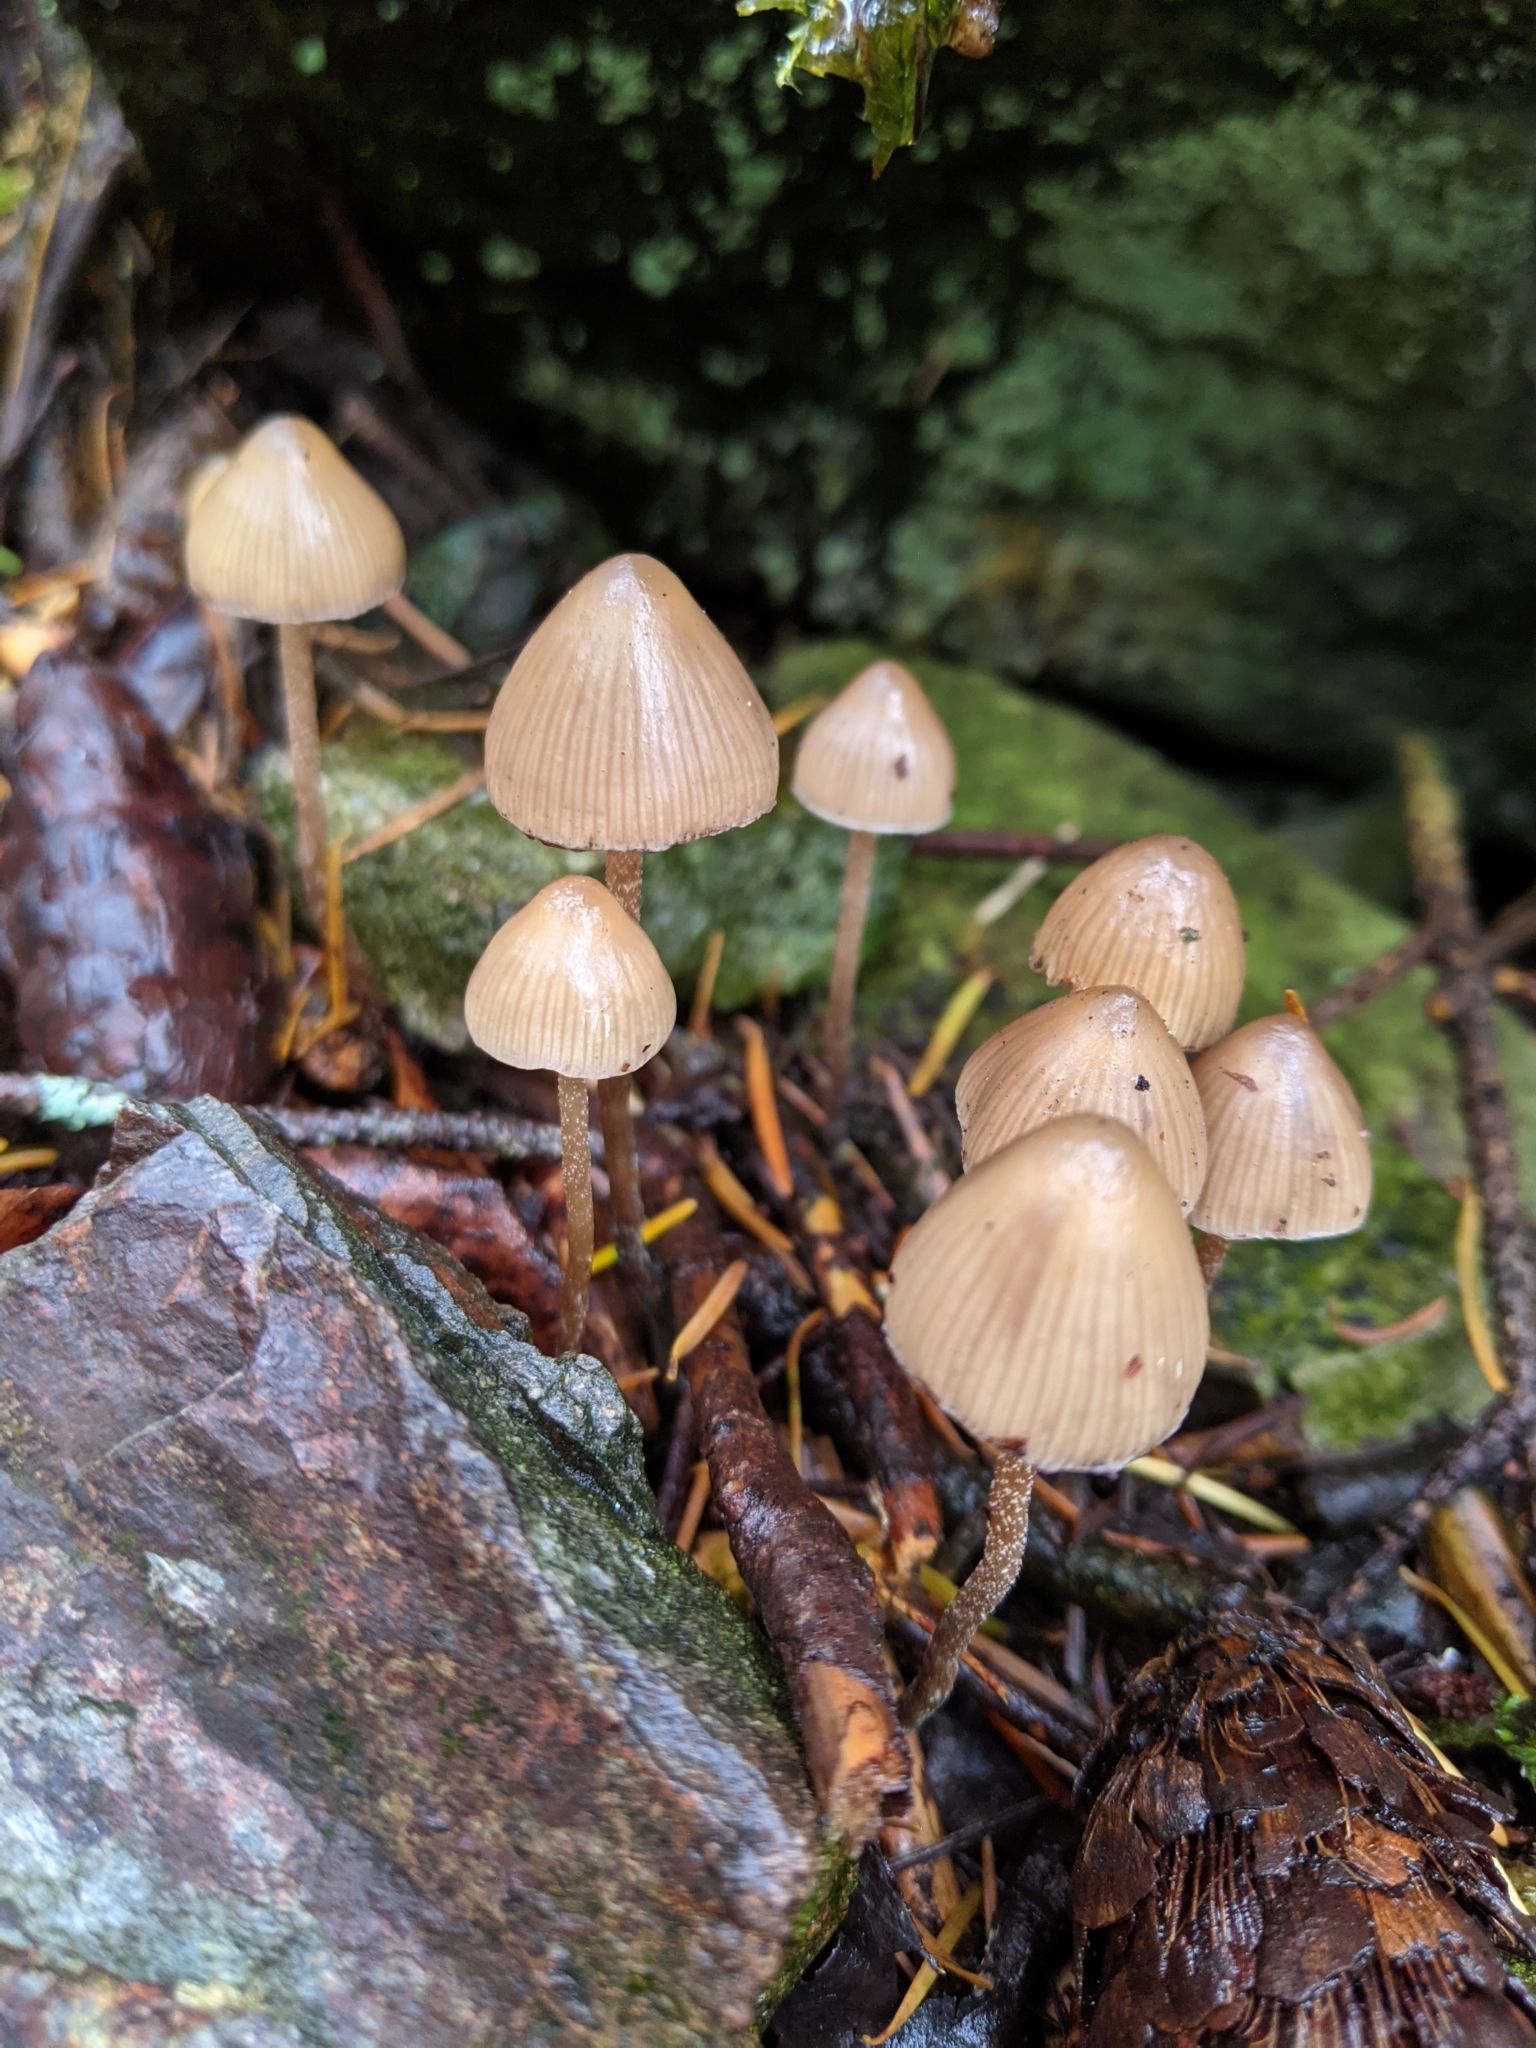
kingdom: Fungi
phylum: Basidiomycota
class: Agaricomycetes
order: Agaricales
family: Hymenogastraceae
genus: Psilocybe
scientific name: Psilocybe pelliculosa
